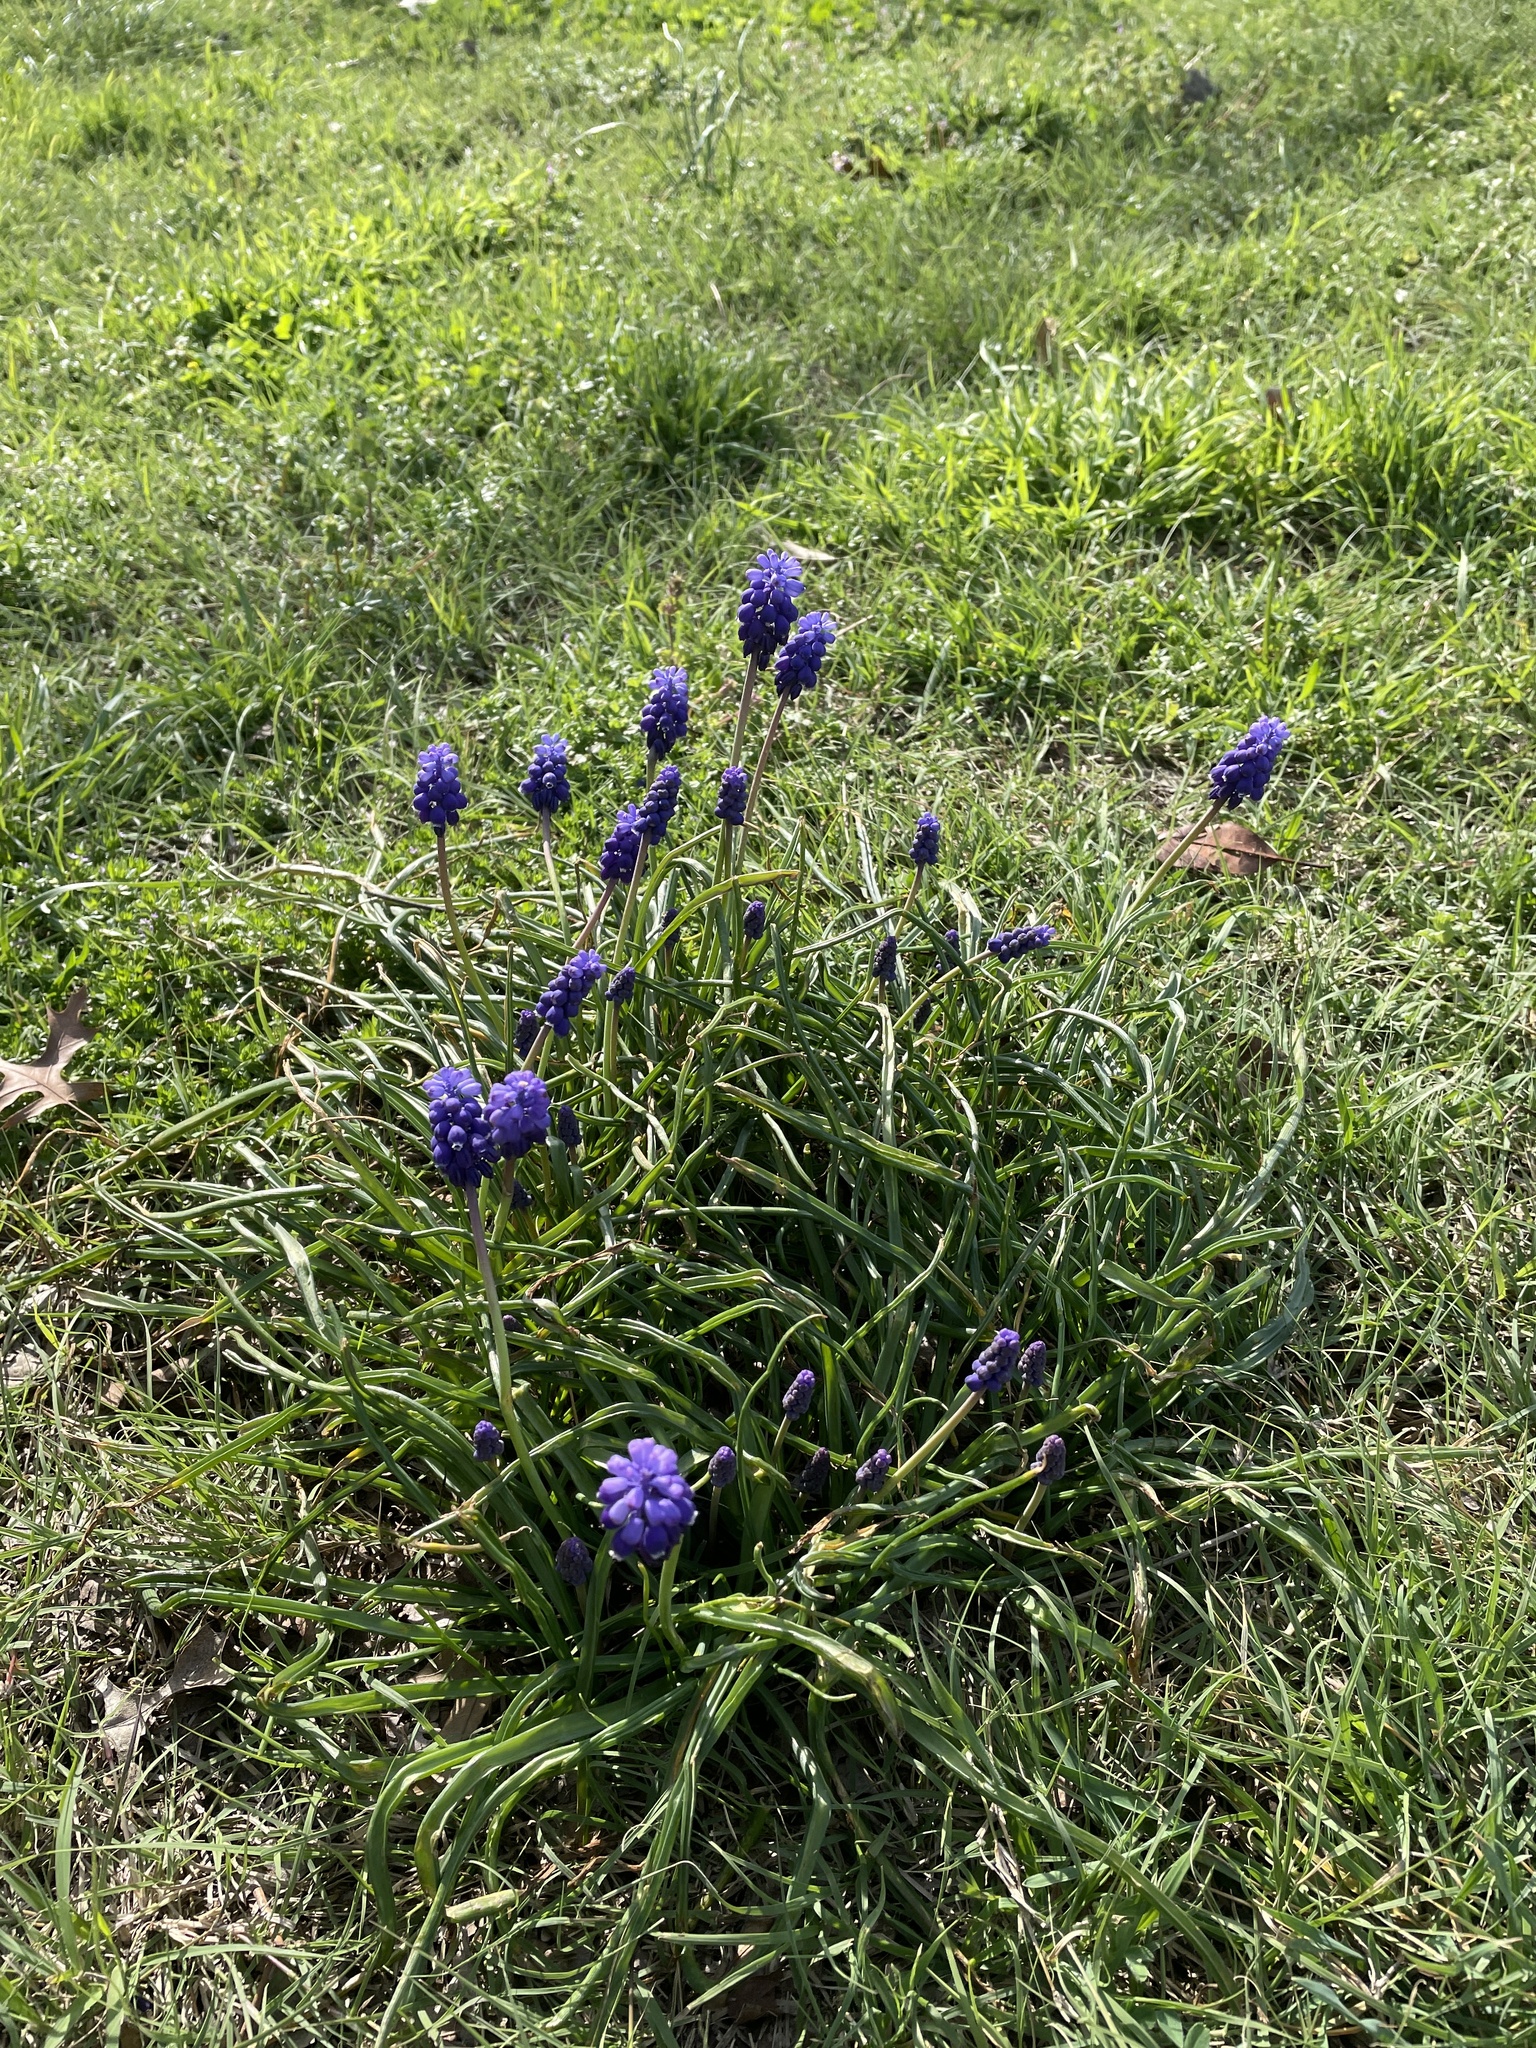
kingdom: Plantae
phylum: Tracheophyta
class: Liliopsida
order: Asparagales
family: Asparagaceae
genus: Muscari
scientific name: Muscari neglectum
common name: Grape-hyacinth
